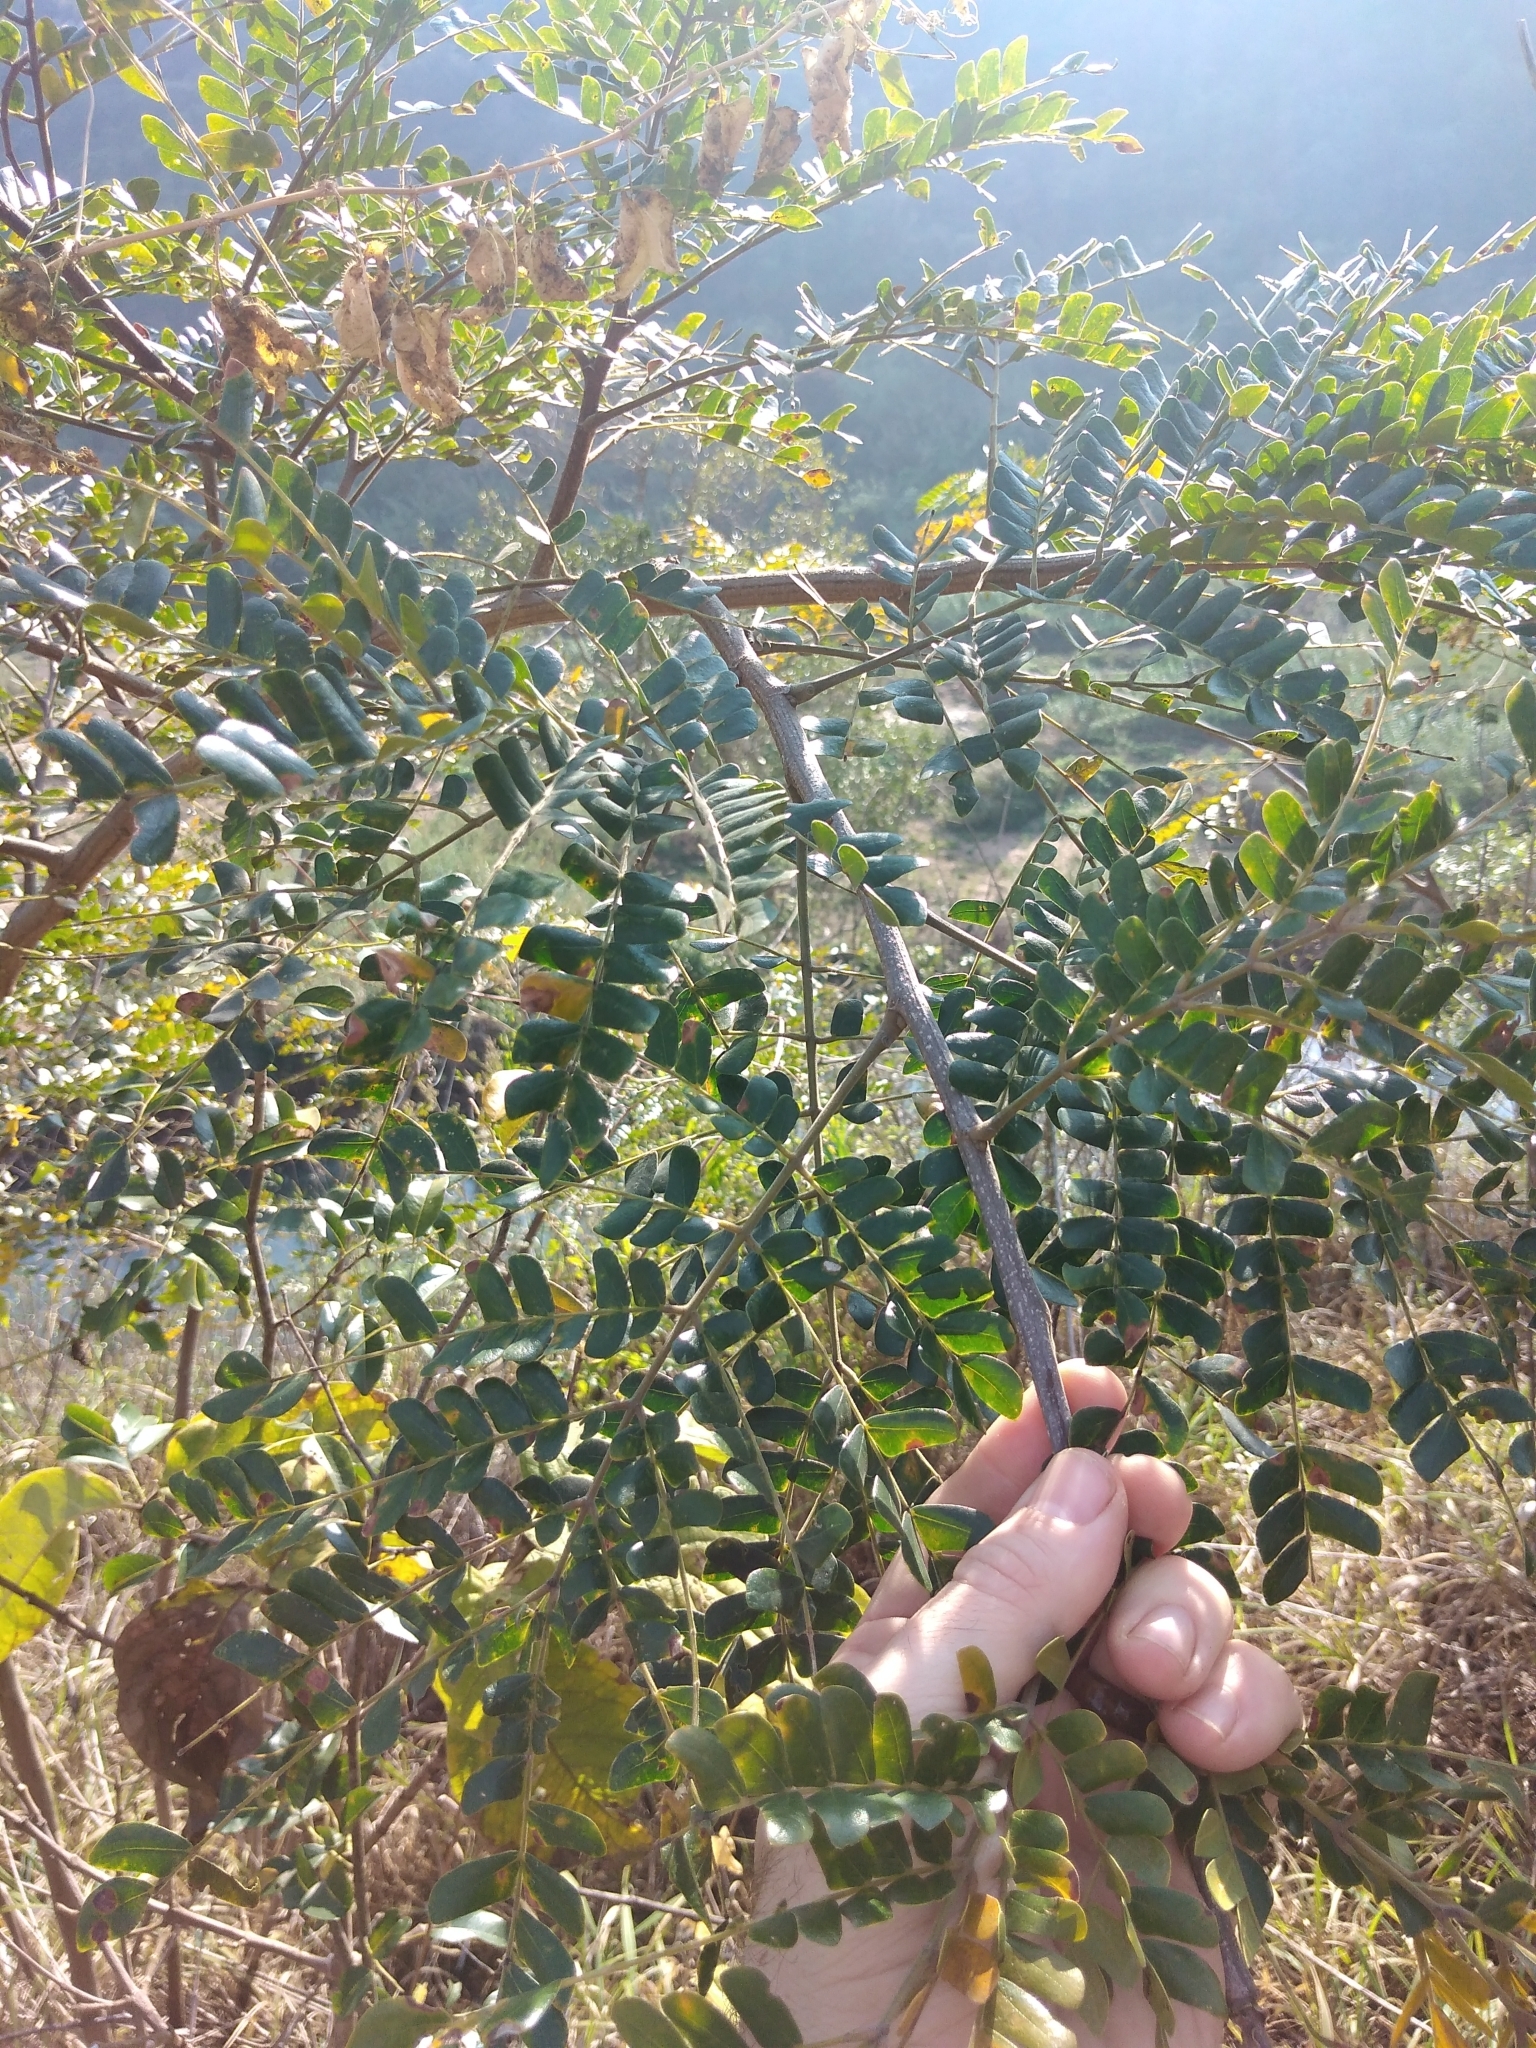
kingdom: Plantae
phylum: Tracheophyta
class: Magnoliopsida
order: Fabales
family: Fabaceae
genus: Albizia
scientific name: Albizia adianthifolia
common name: West african albizia
